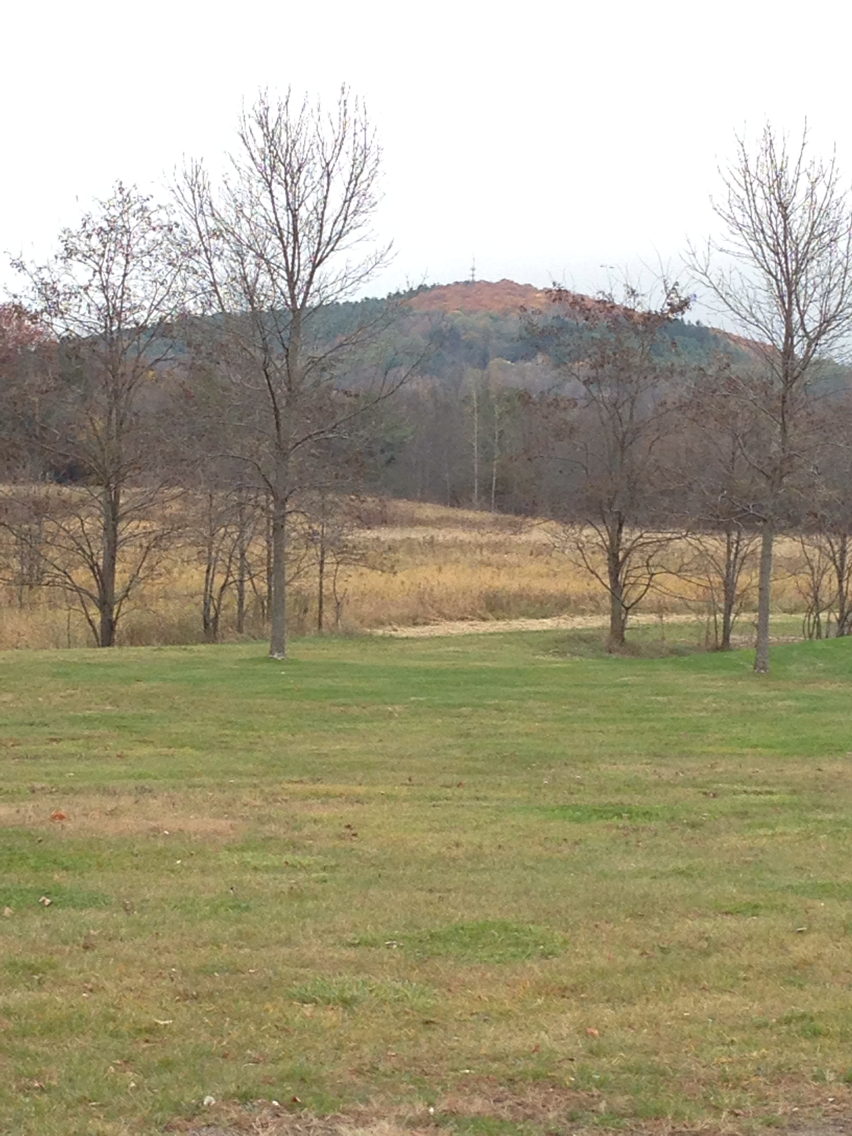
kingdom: Plantae
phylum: Tracheophyta
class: Magnoliopsida
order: Fagales
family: Fagaceae
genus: Quercus
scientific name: Quercus rubra
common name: Red oak
